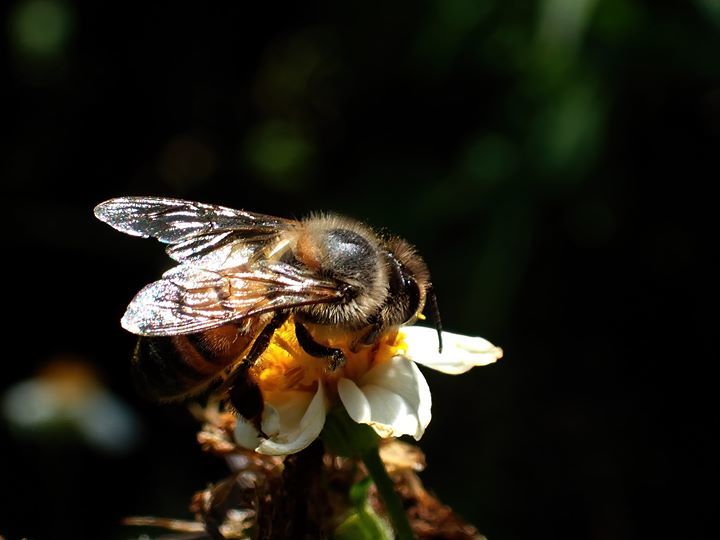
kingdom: Animalia
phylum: Arthropoda
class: Insecta
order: Hymenoptera
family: Apidae
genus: Apis
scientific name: Apis mellifera
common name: Honey bee
